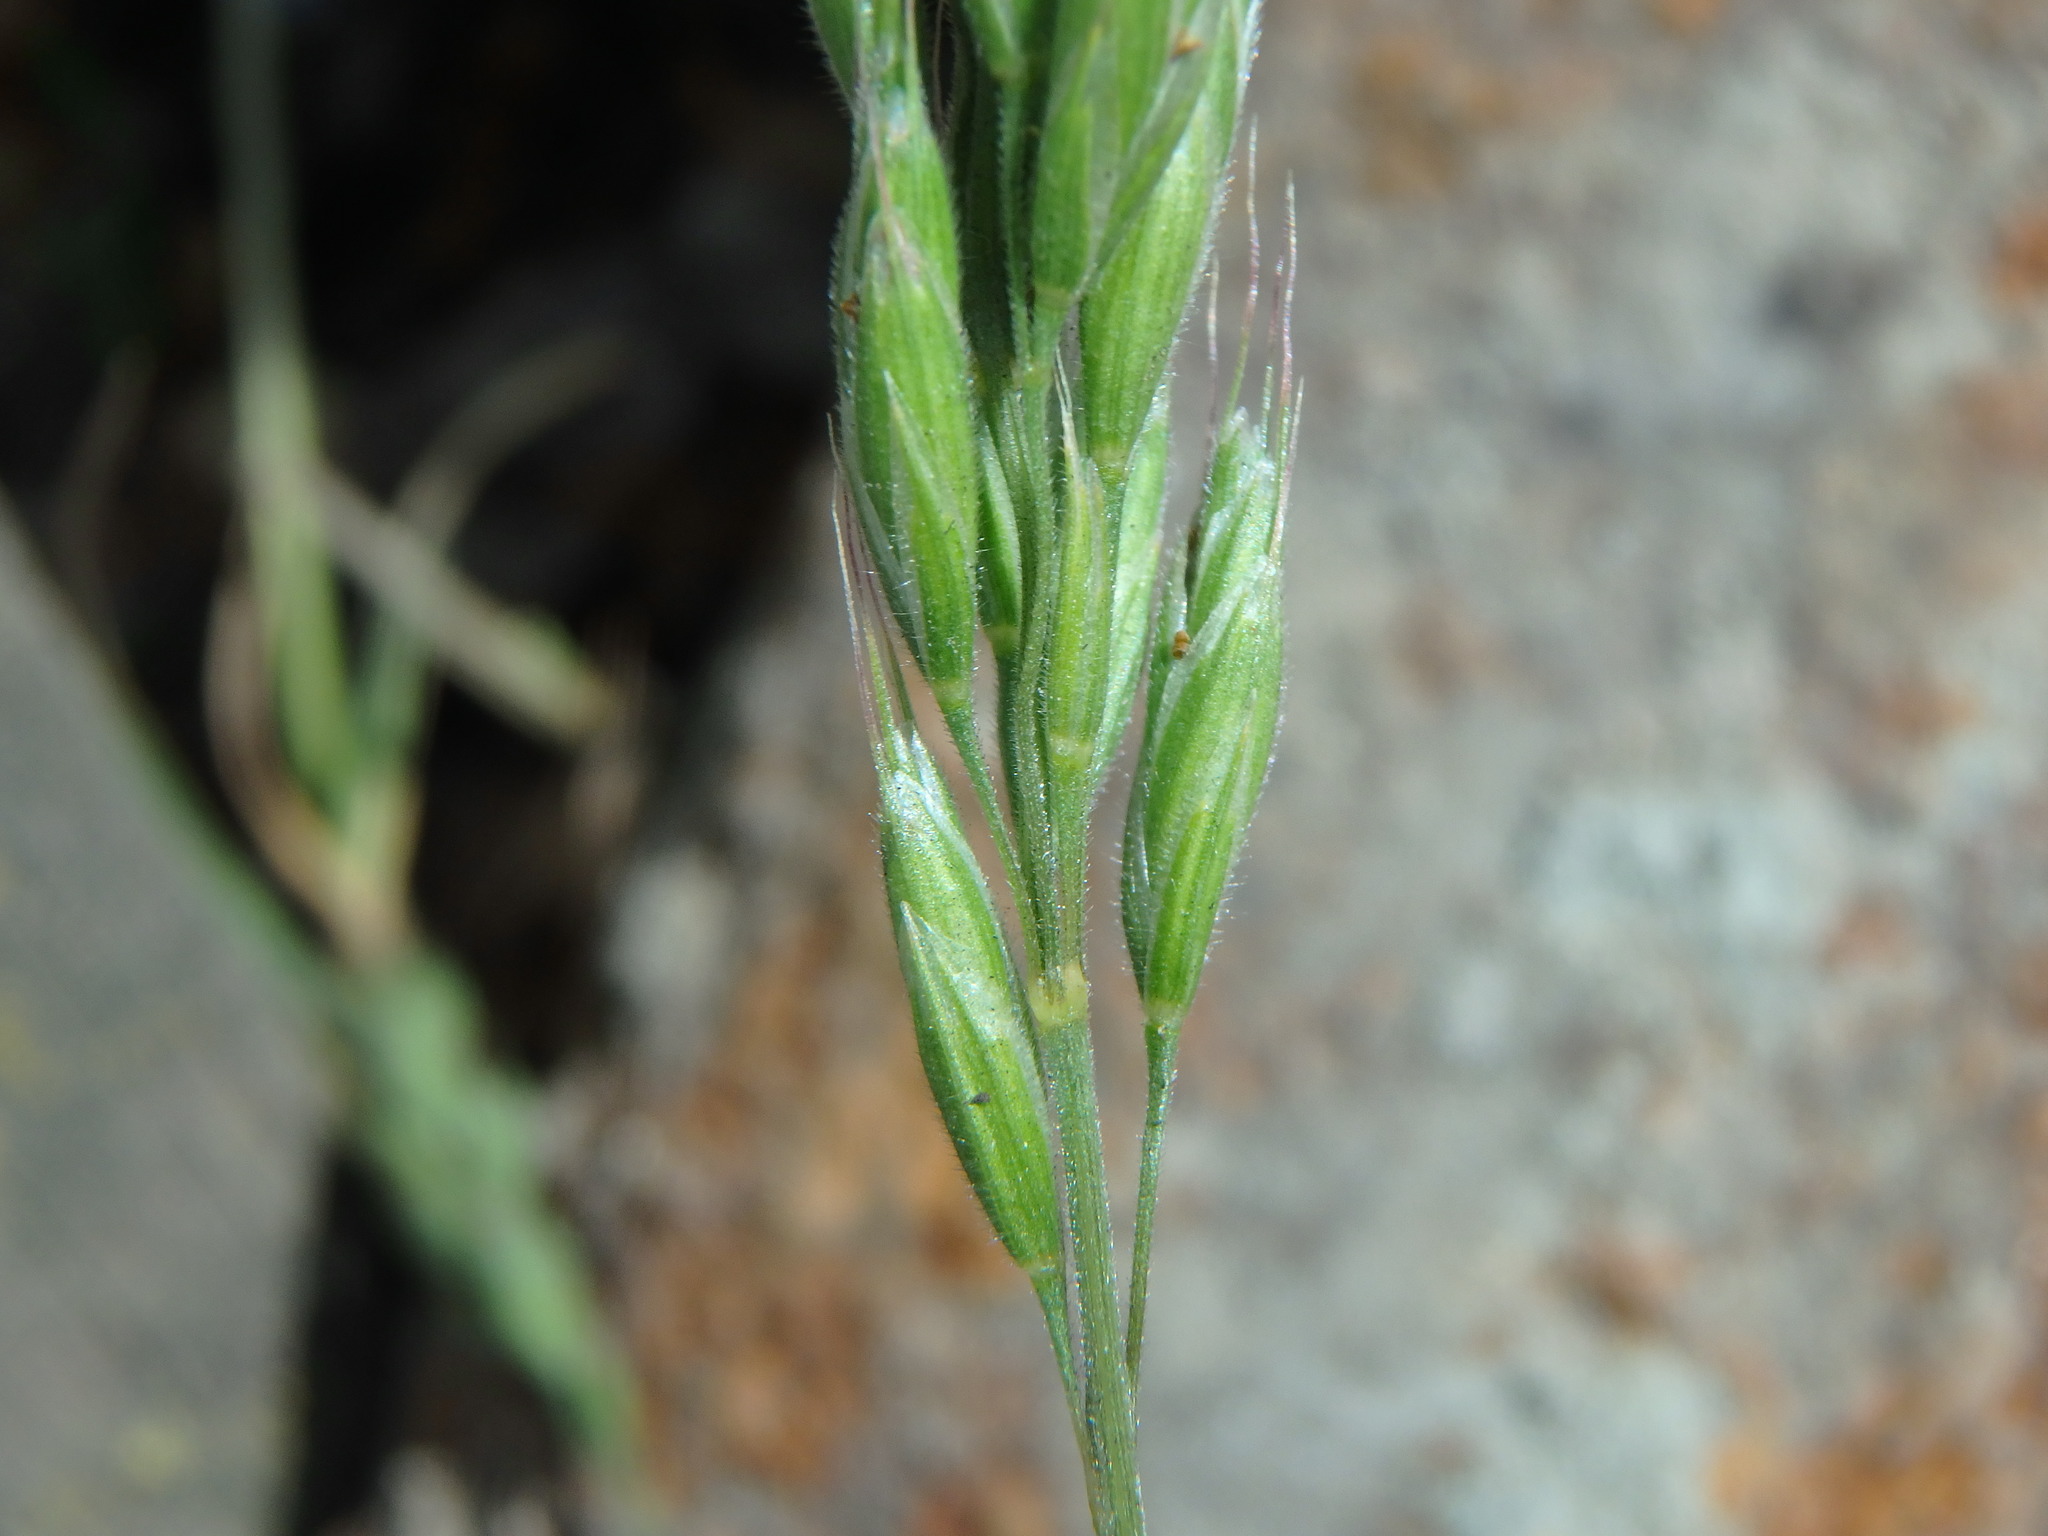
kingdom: Plantae
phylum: Tracheophyta
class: Liliopsida
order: Poales
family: Poaceae
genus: Bromus
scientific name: Bromus hordeaceus
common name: Soft brome
